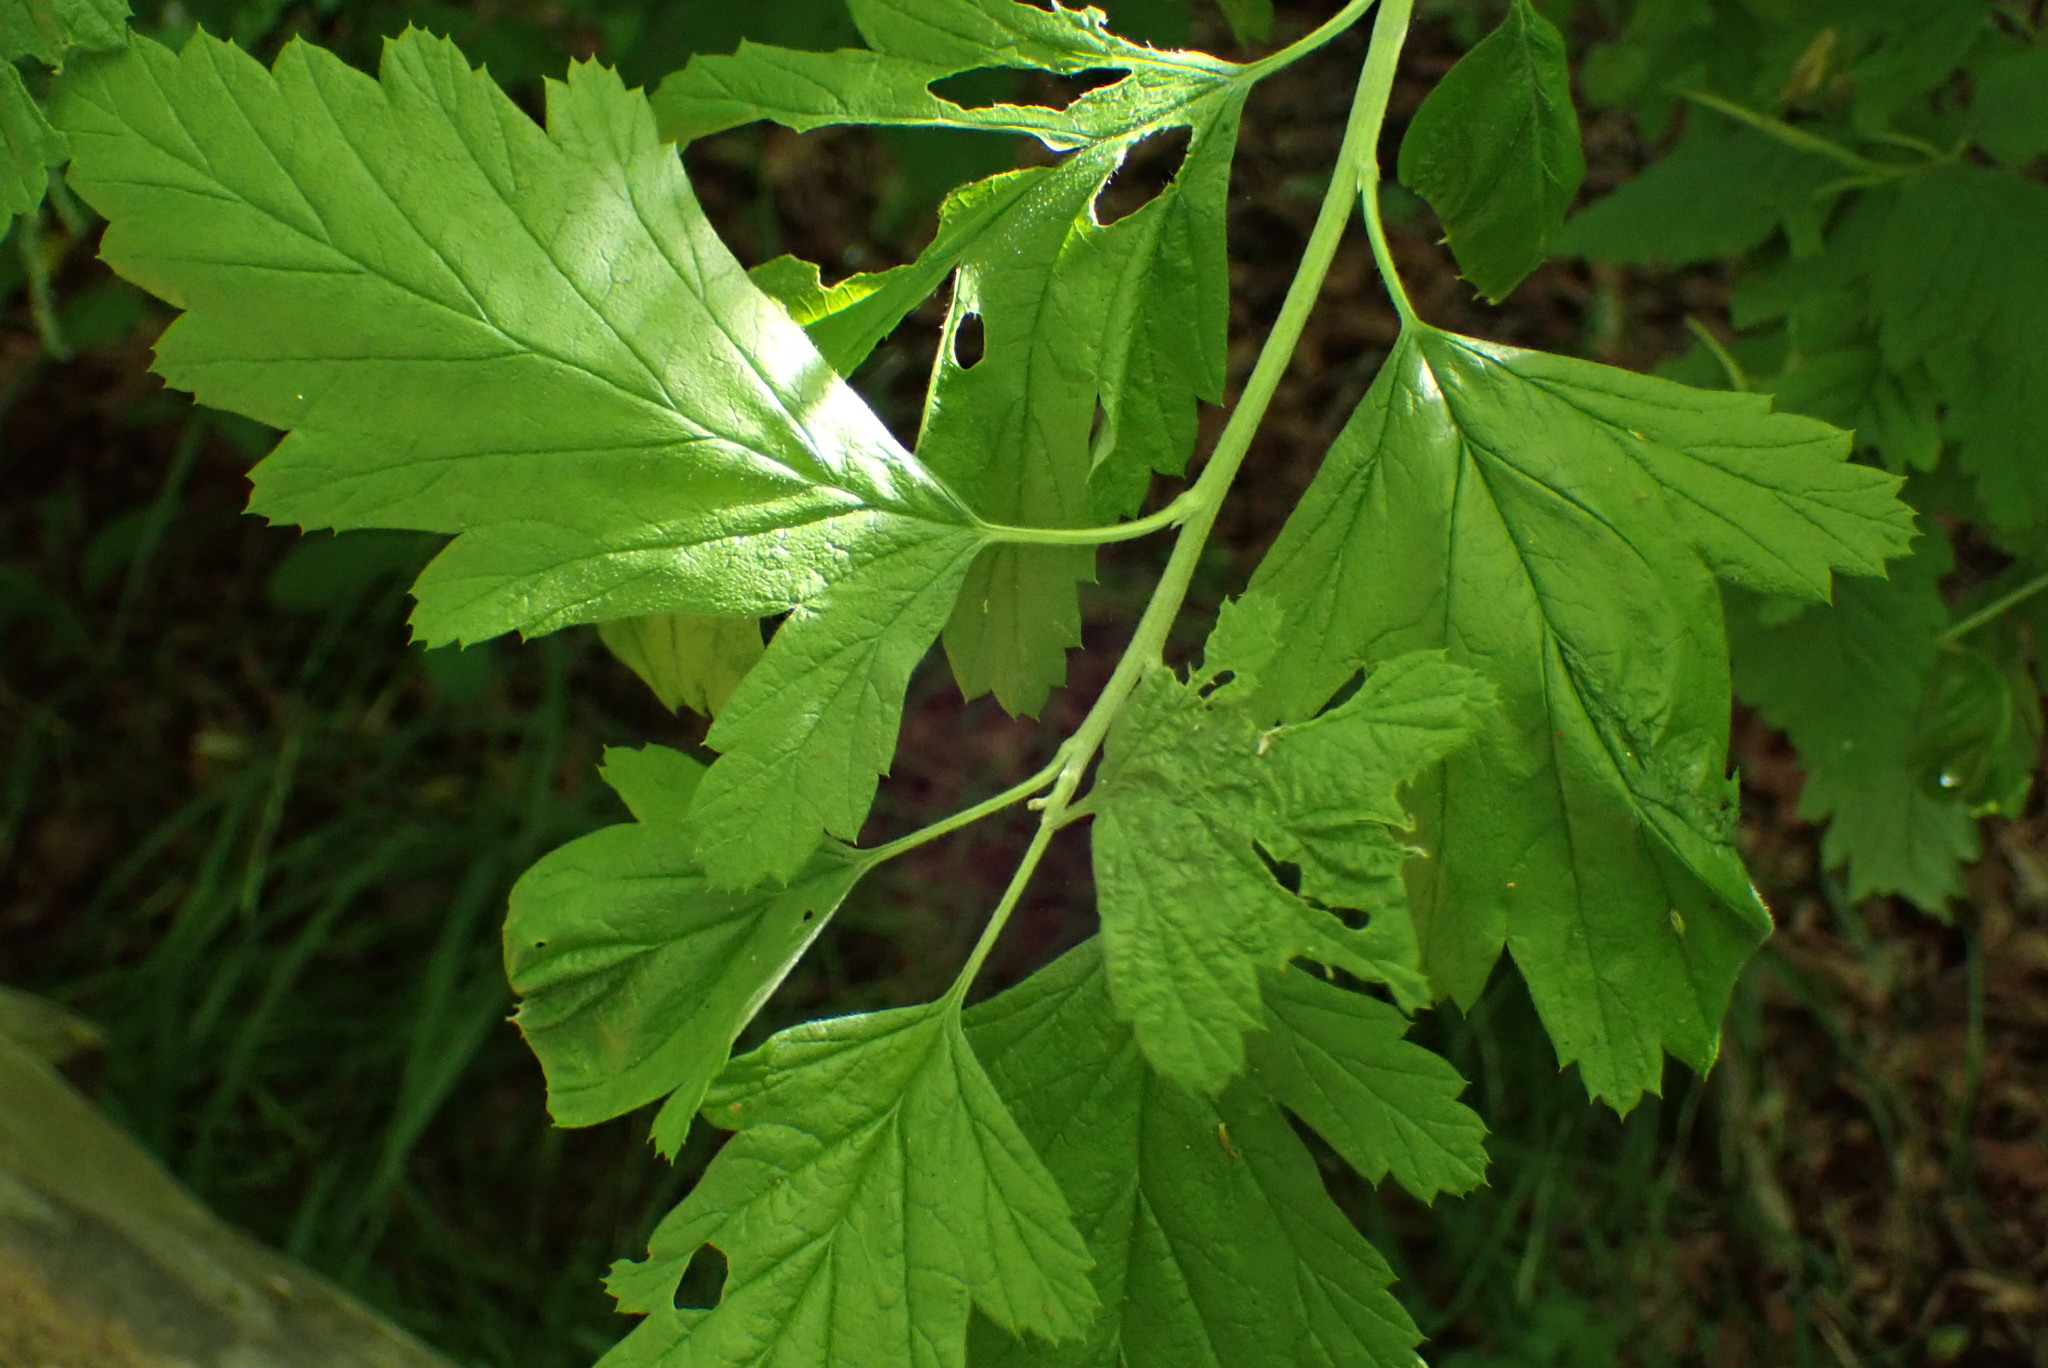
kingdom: Plantae
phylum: Tracheophyta
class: Magnoliopsida
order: Rosales
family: Rosaceae
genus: Holodiscus
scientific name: Holodiscus discolor
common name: Oceanspray
